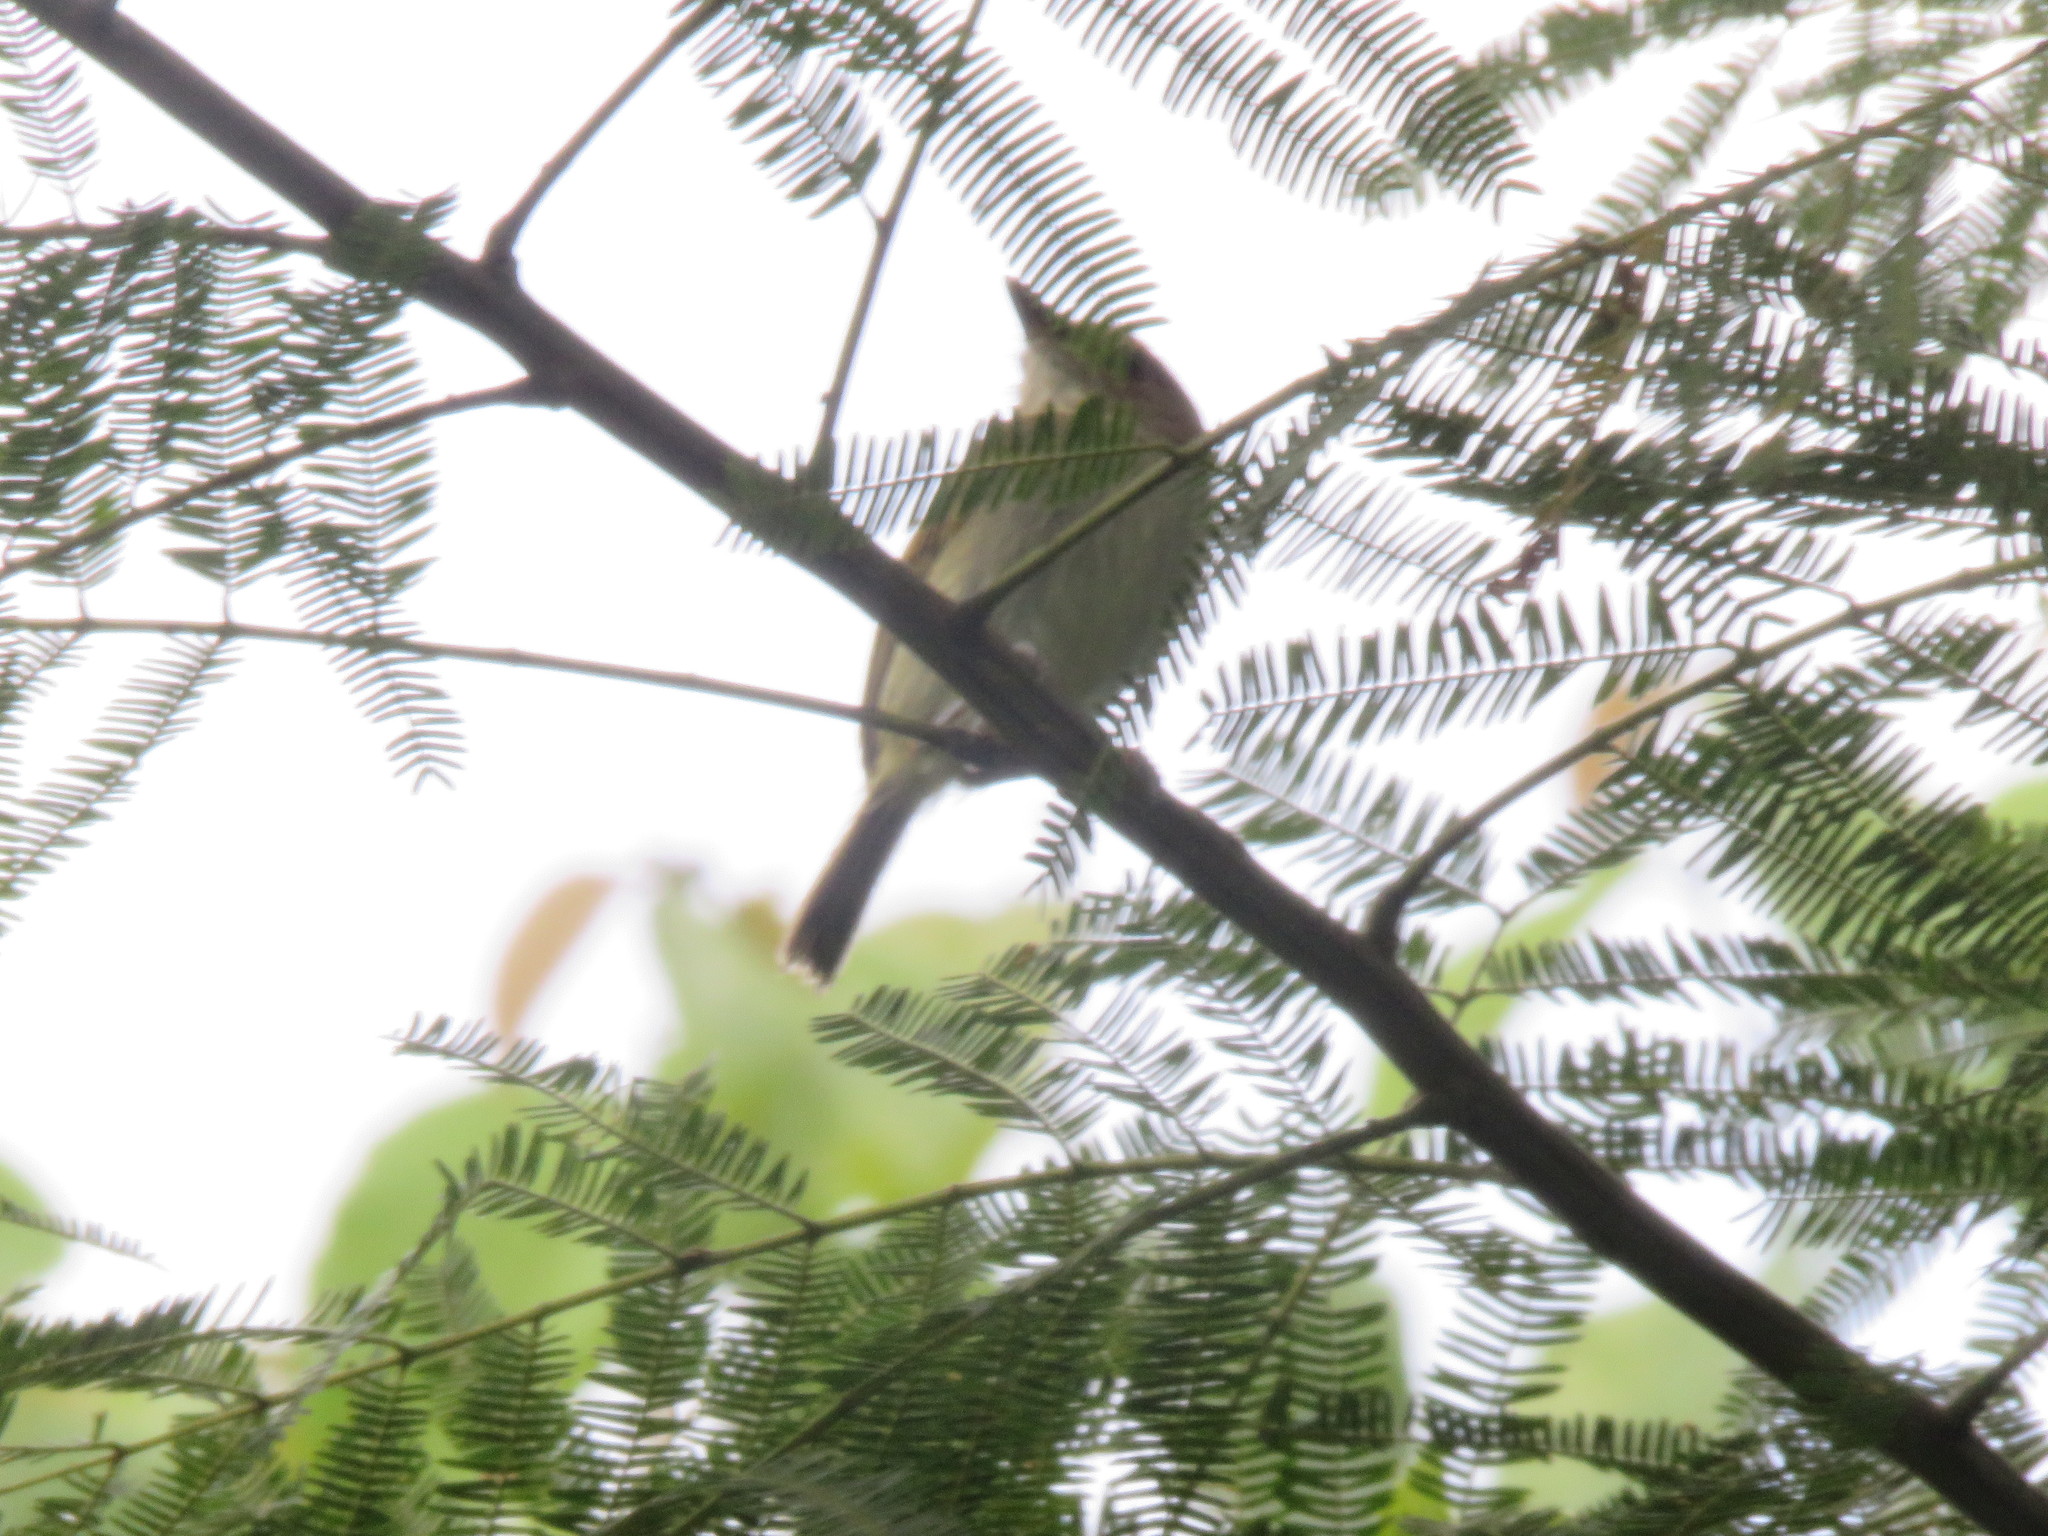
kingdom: Animalia
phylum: Chordata
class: Aves
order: Passeriformes
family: Tyrannidae
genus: Poecilotriccus
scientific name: Poecilotriccus latirostris
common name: Rusty-fronted tody-flycatcher
